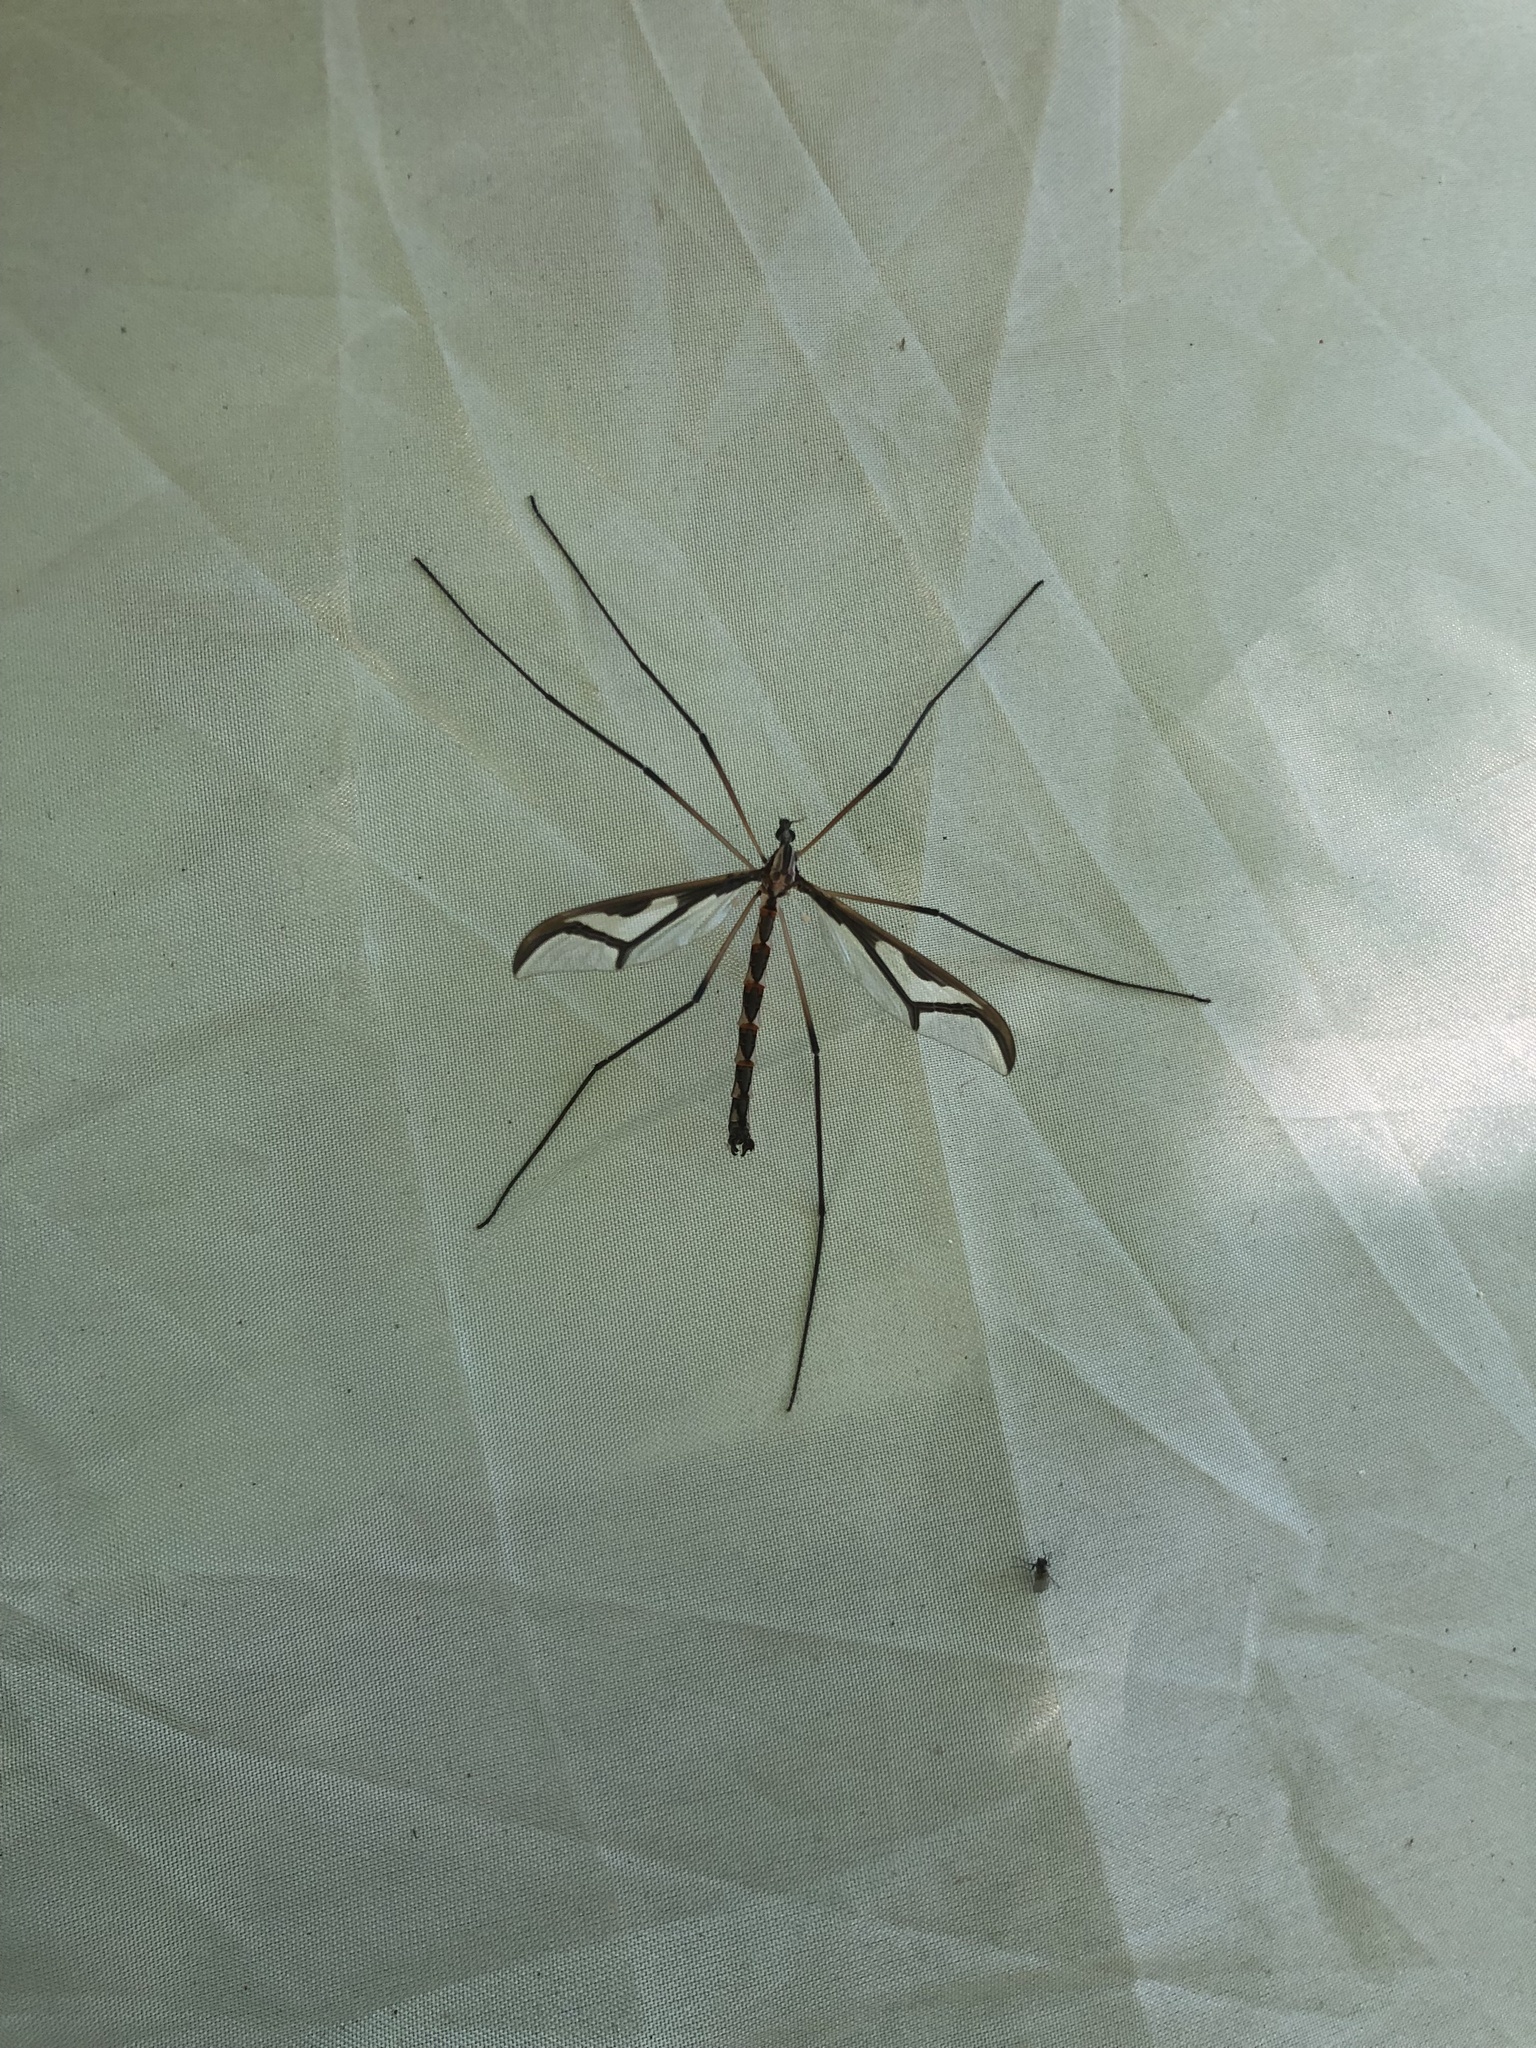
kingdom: Animalia
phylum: Arthropoda
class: Insecta
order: Diptera
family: Pediciidae
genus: Pedicia
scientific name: Pedicia albivitta
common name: Giant eastern crane fly
